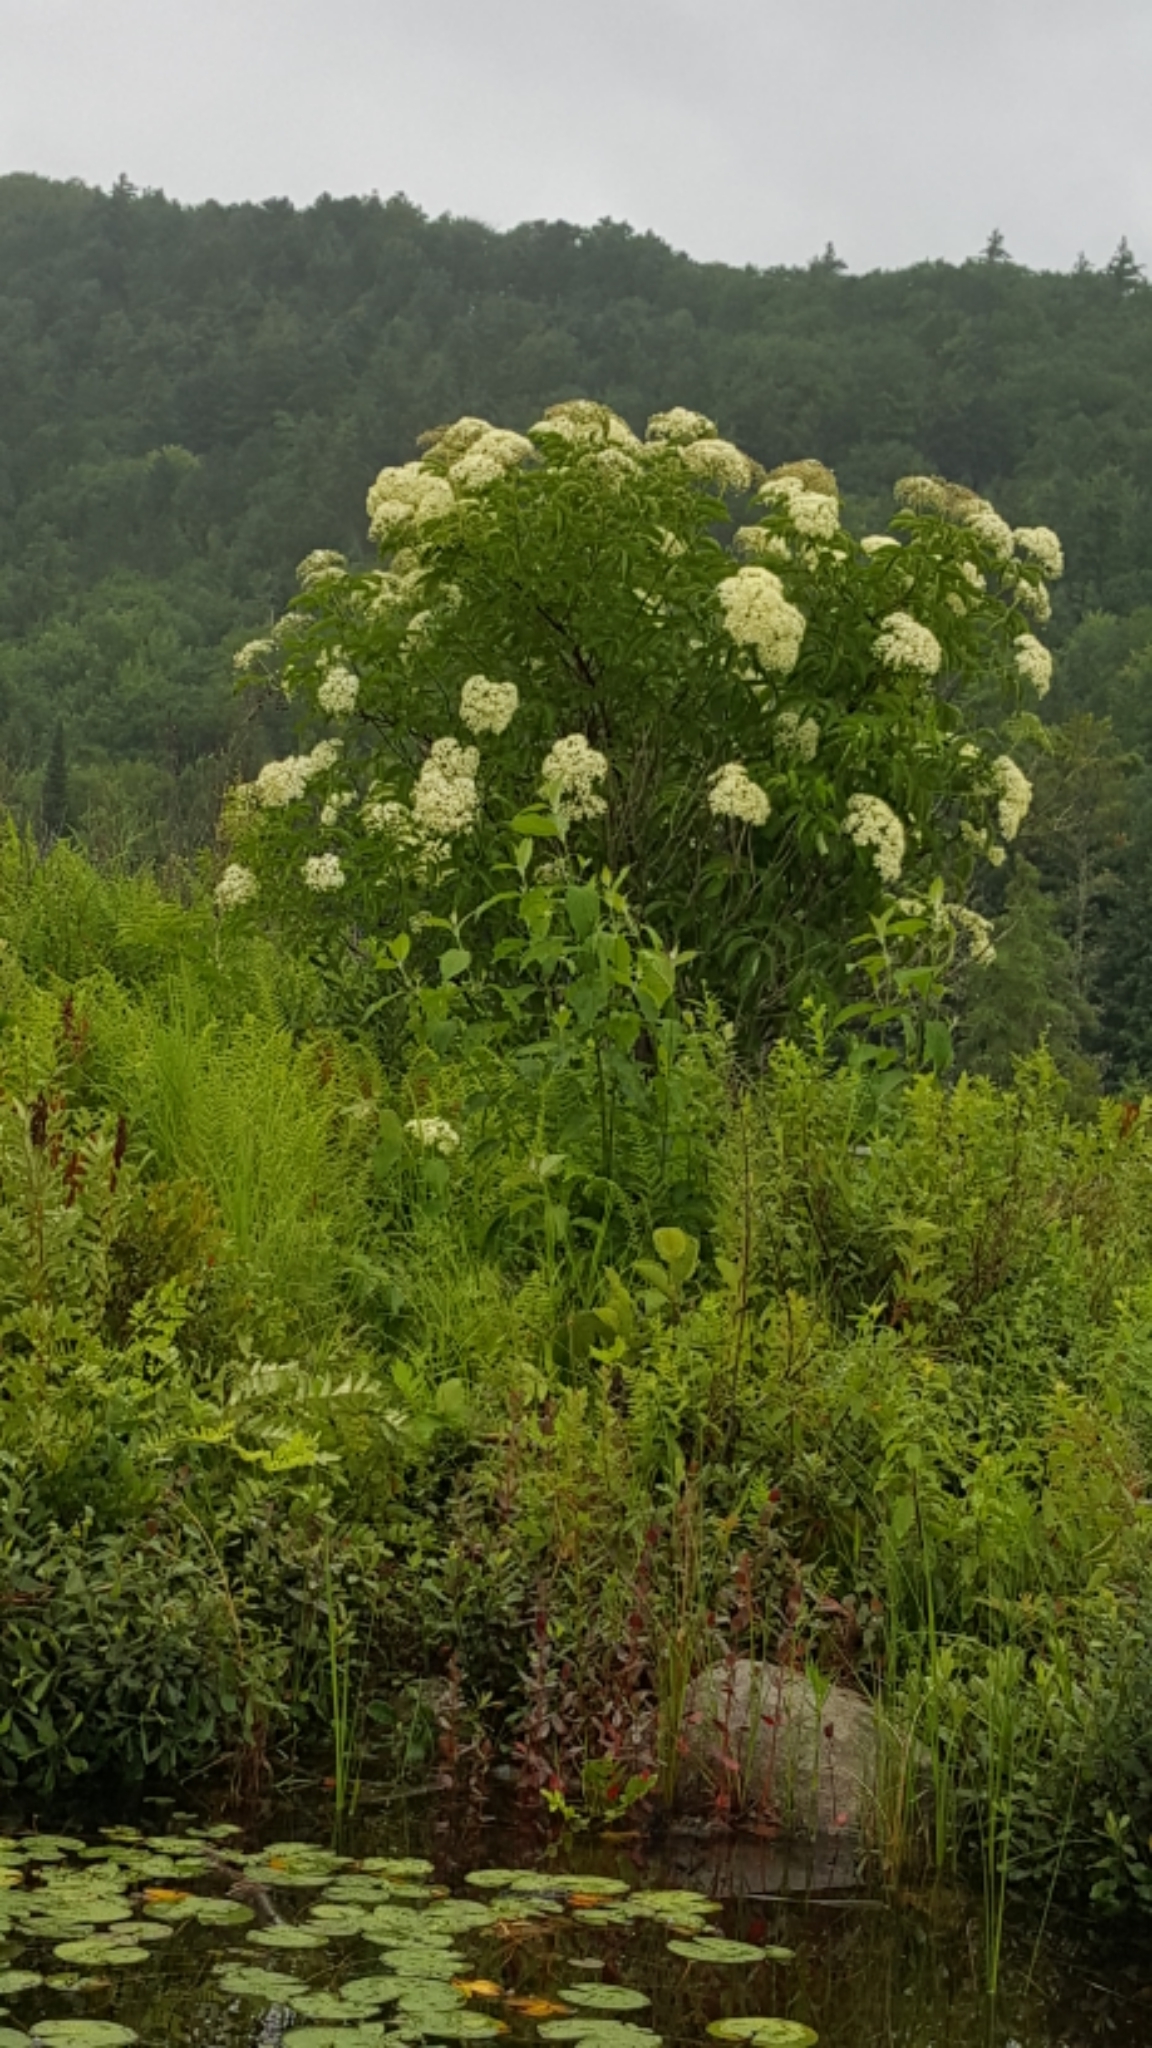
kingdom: Plantae
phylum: Tracheophyta
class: Magnoliopsida
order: Dipsacales
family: Viburnaceae
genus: Sambucus
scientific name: Sambucus canadensis
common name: American elder
